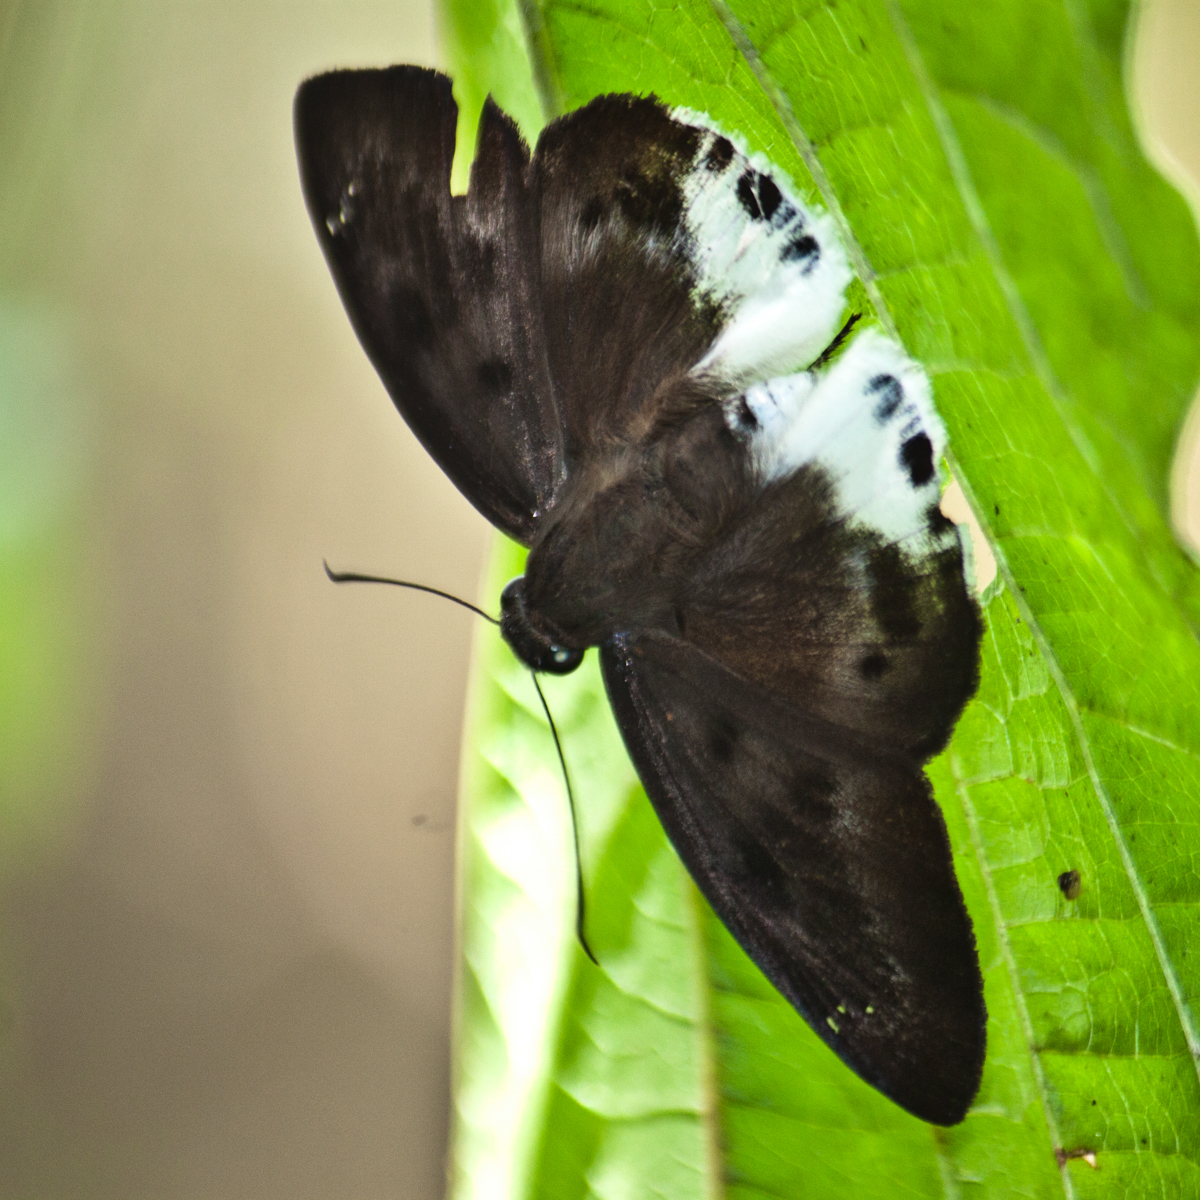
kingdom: Animalia
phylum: Arthropoda
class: Insecta
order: Lepidoptera
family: Hesperiidae
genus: Tagiades
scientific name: Tagiades parra
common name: Straight snow flat
